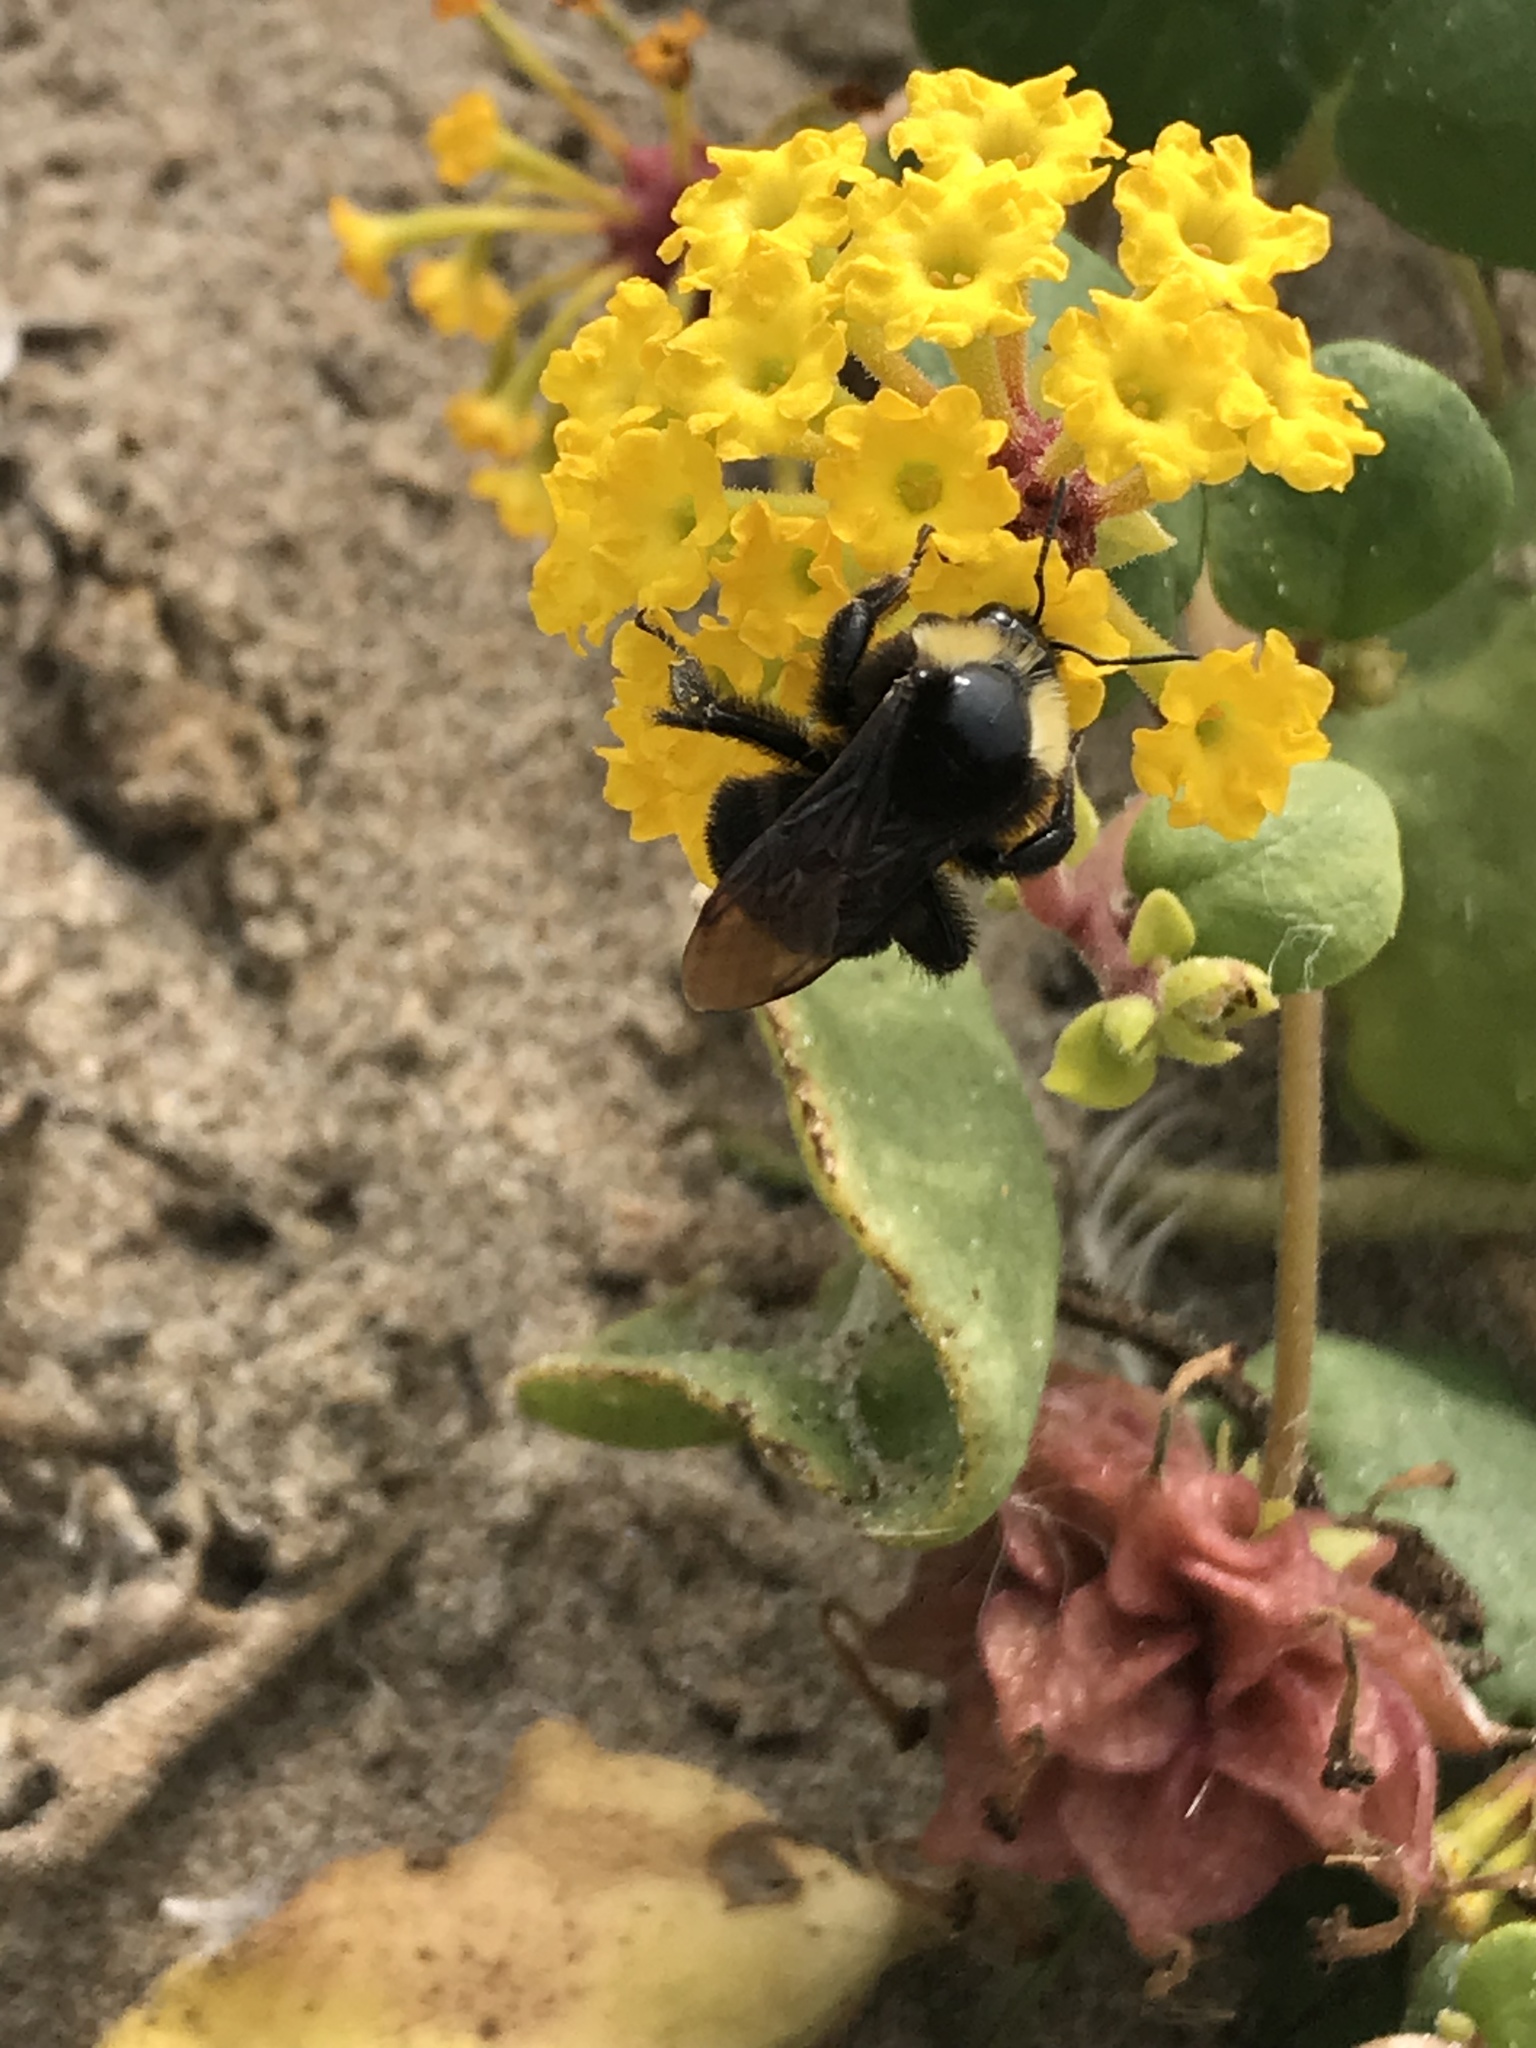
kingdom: Animalia
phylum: Arthropoda
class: Insecta
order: Hymenoptera
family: Apidae
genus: Bombus
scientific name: Bombus californicus
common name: California bumble bee
